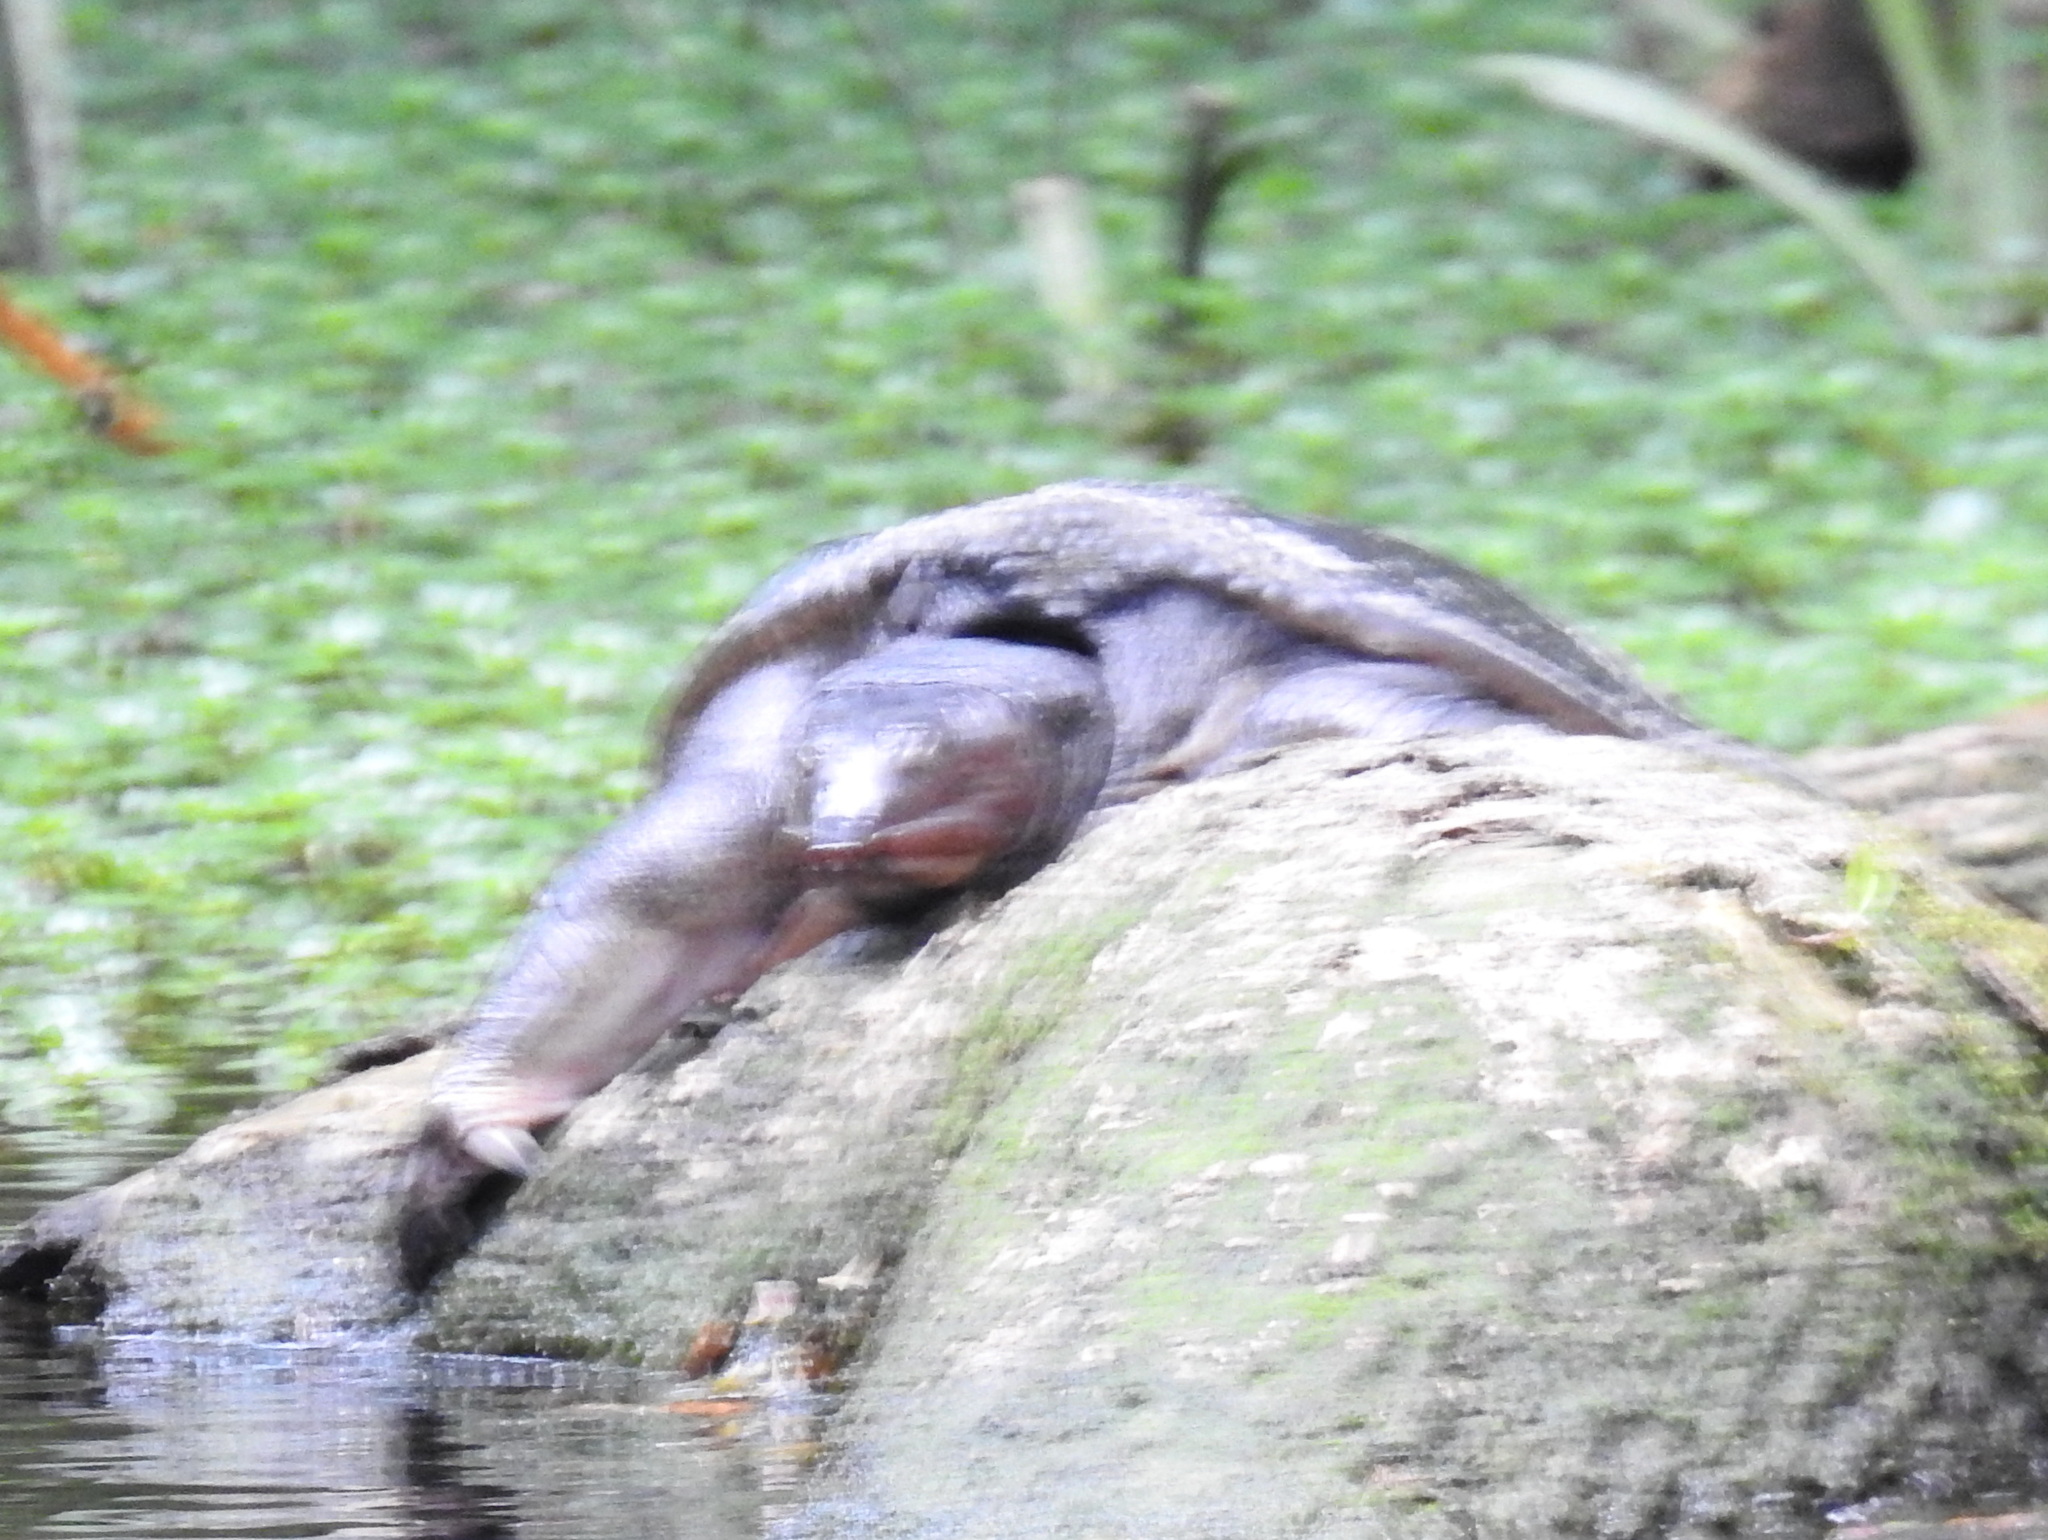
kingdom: Animalia
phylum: Chordata
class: Testudines
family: Trionychidae
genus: Apalone
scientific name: Apalone ferox
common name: Florida softshell turtle
